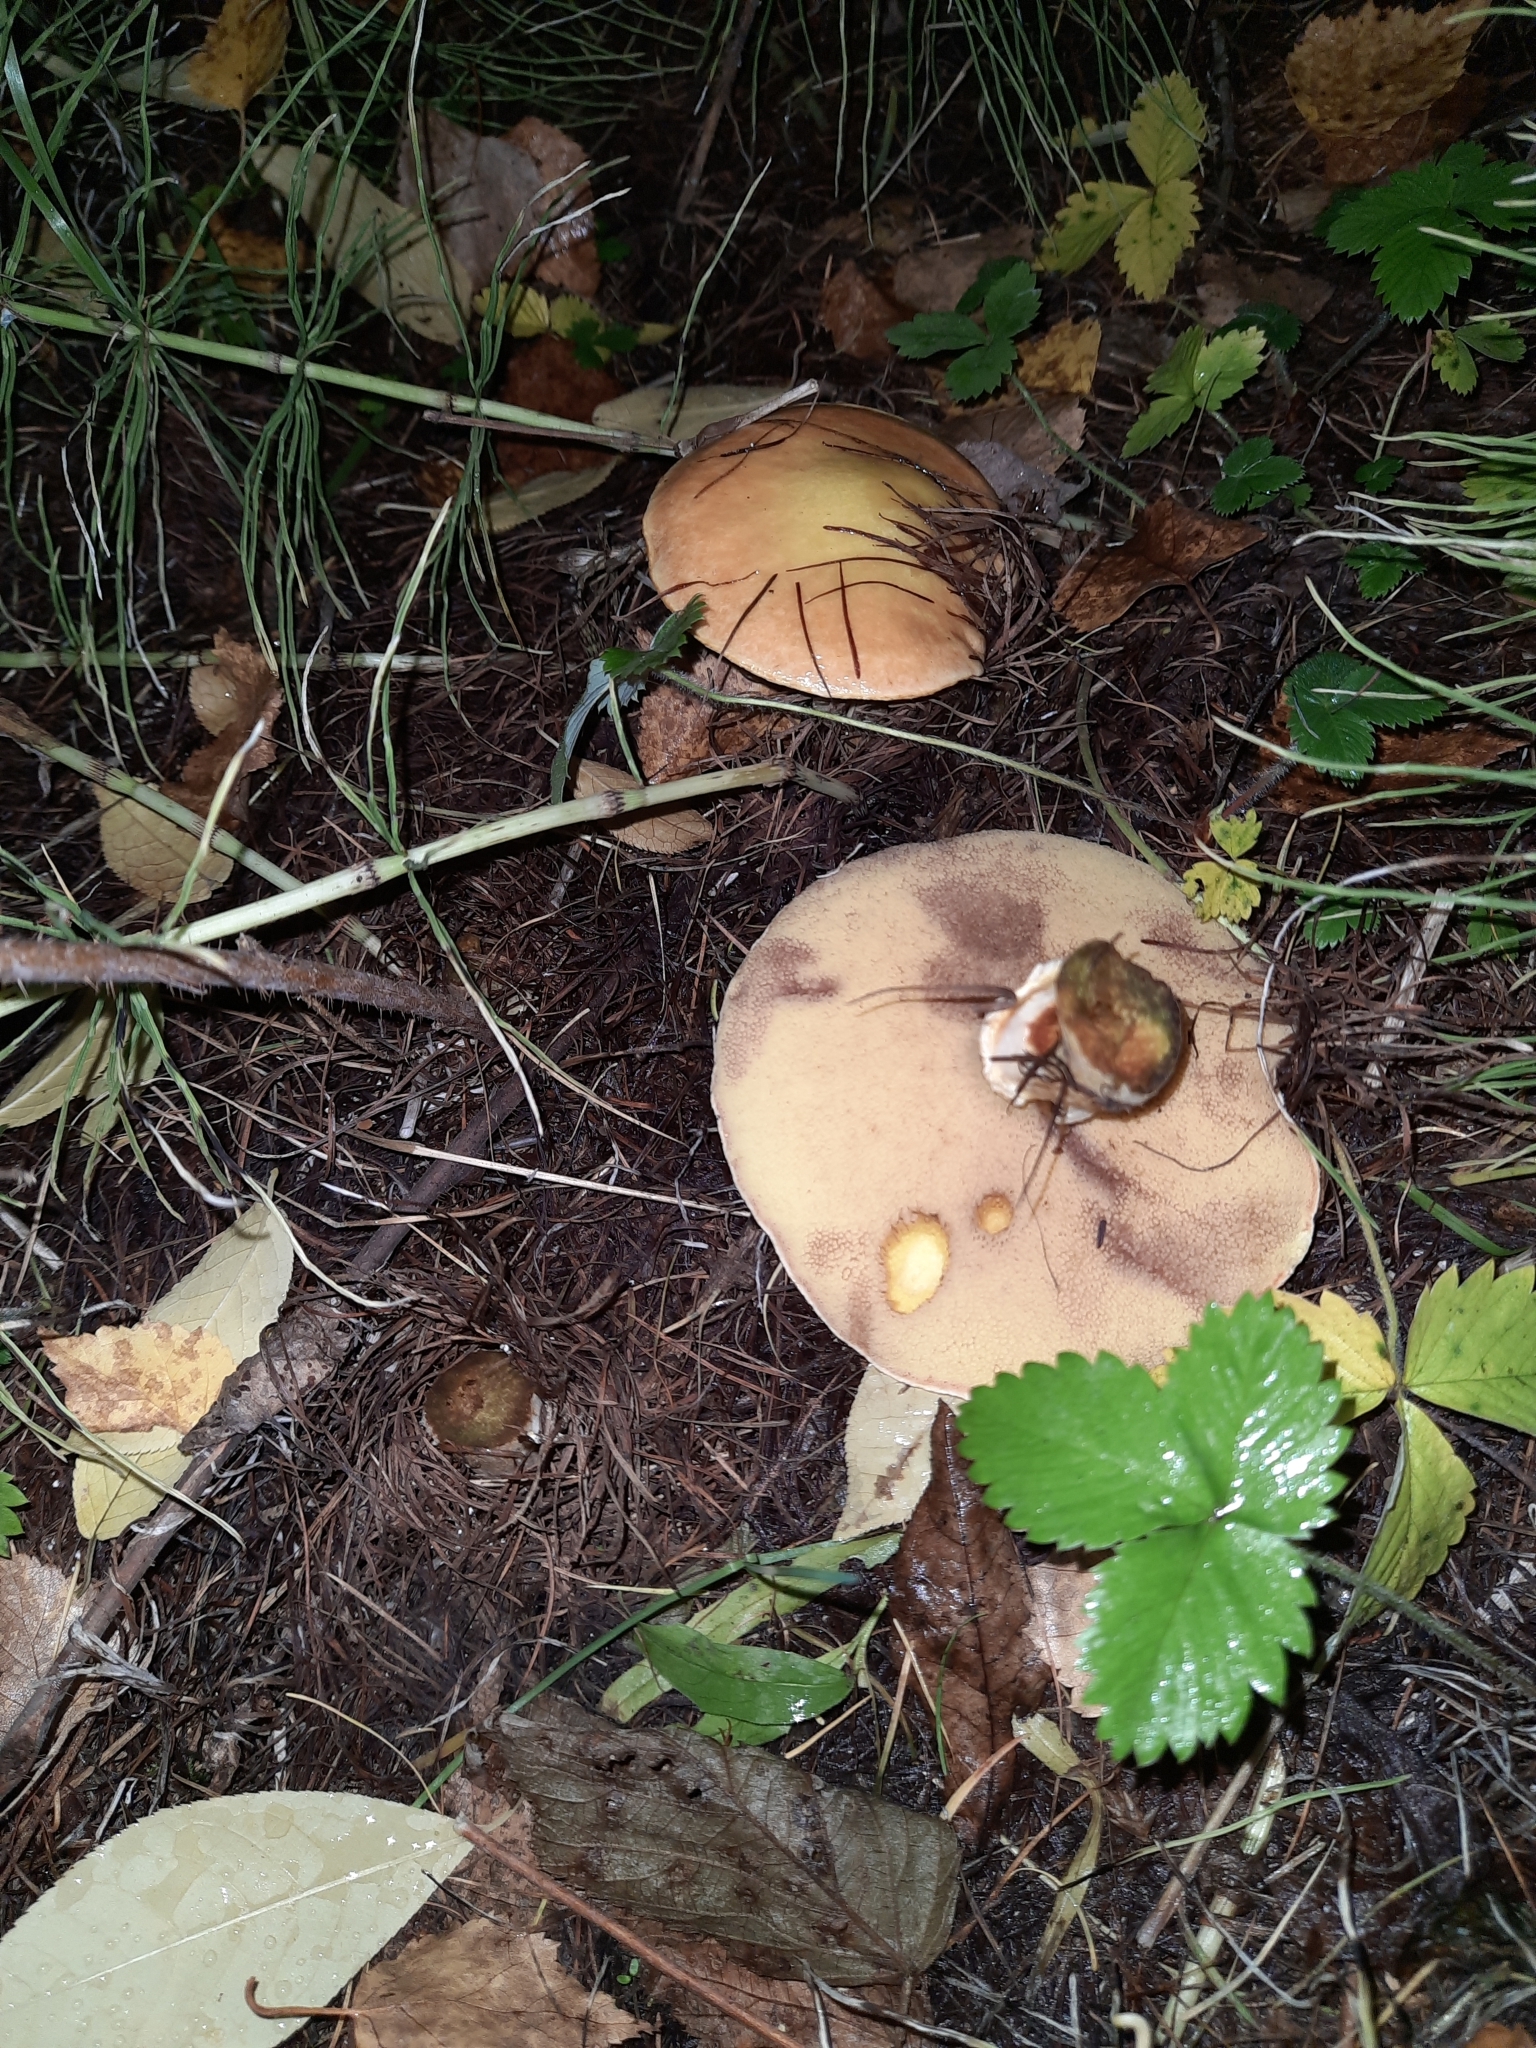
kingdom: Fungi
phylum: Basidiomycota
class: Agaricomycetes
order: Boletales
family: Suillaceae
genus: Suillus
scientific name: Suillus grevillei
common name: Larch bolete
